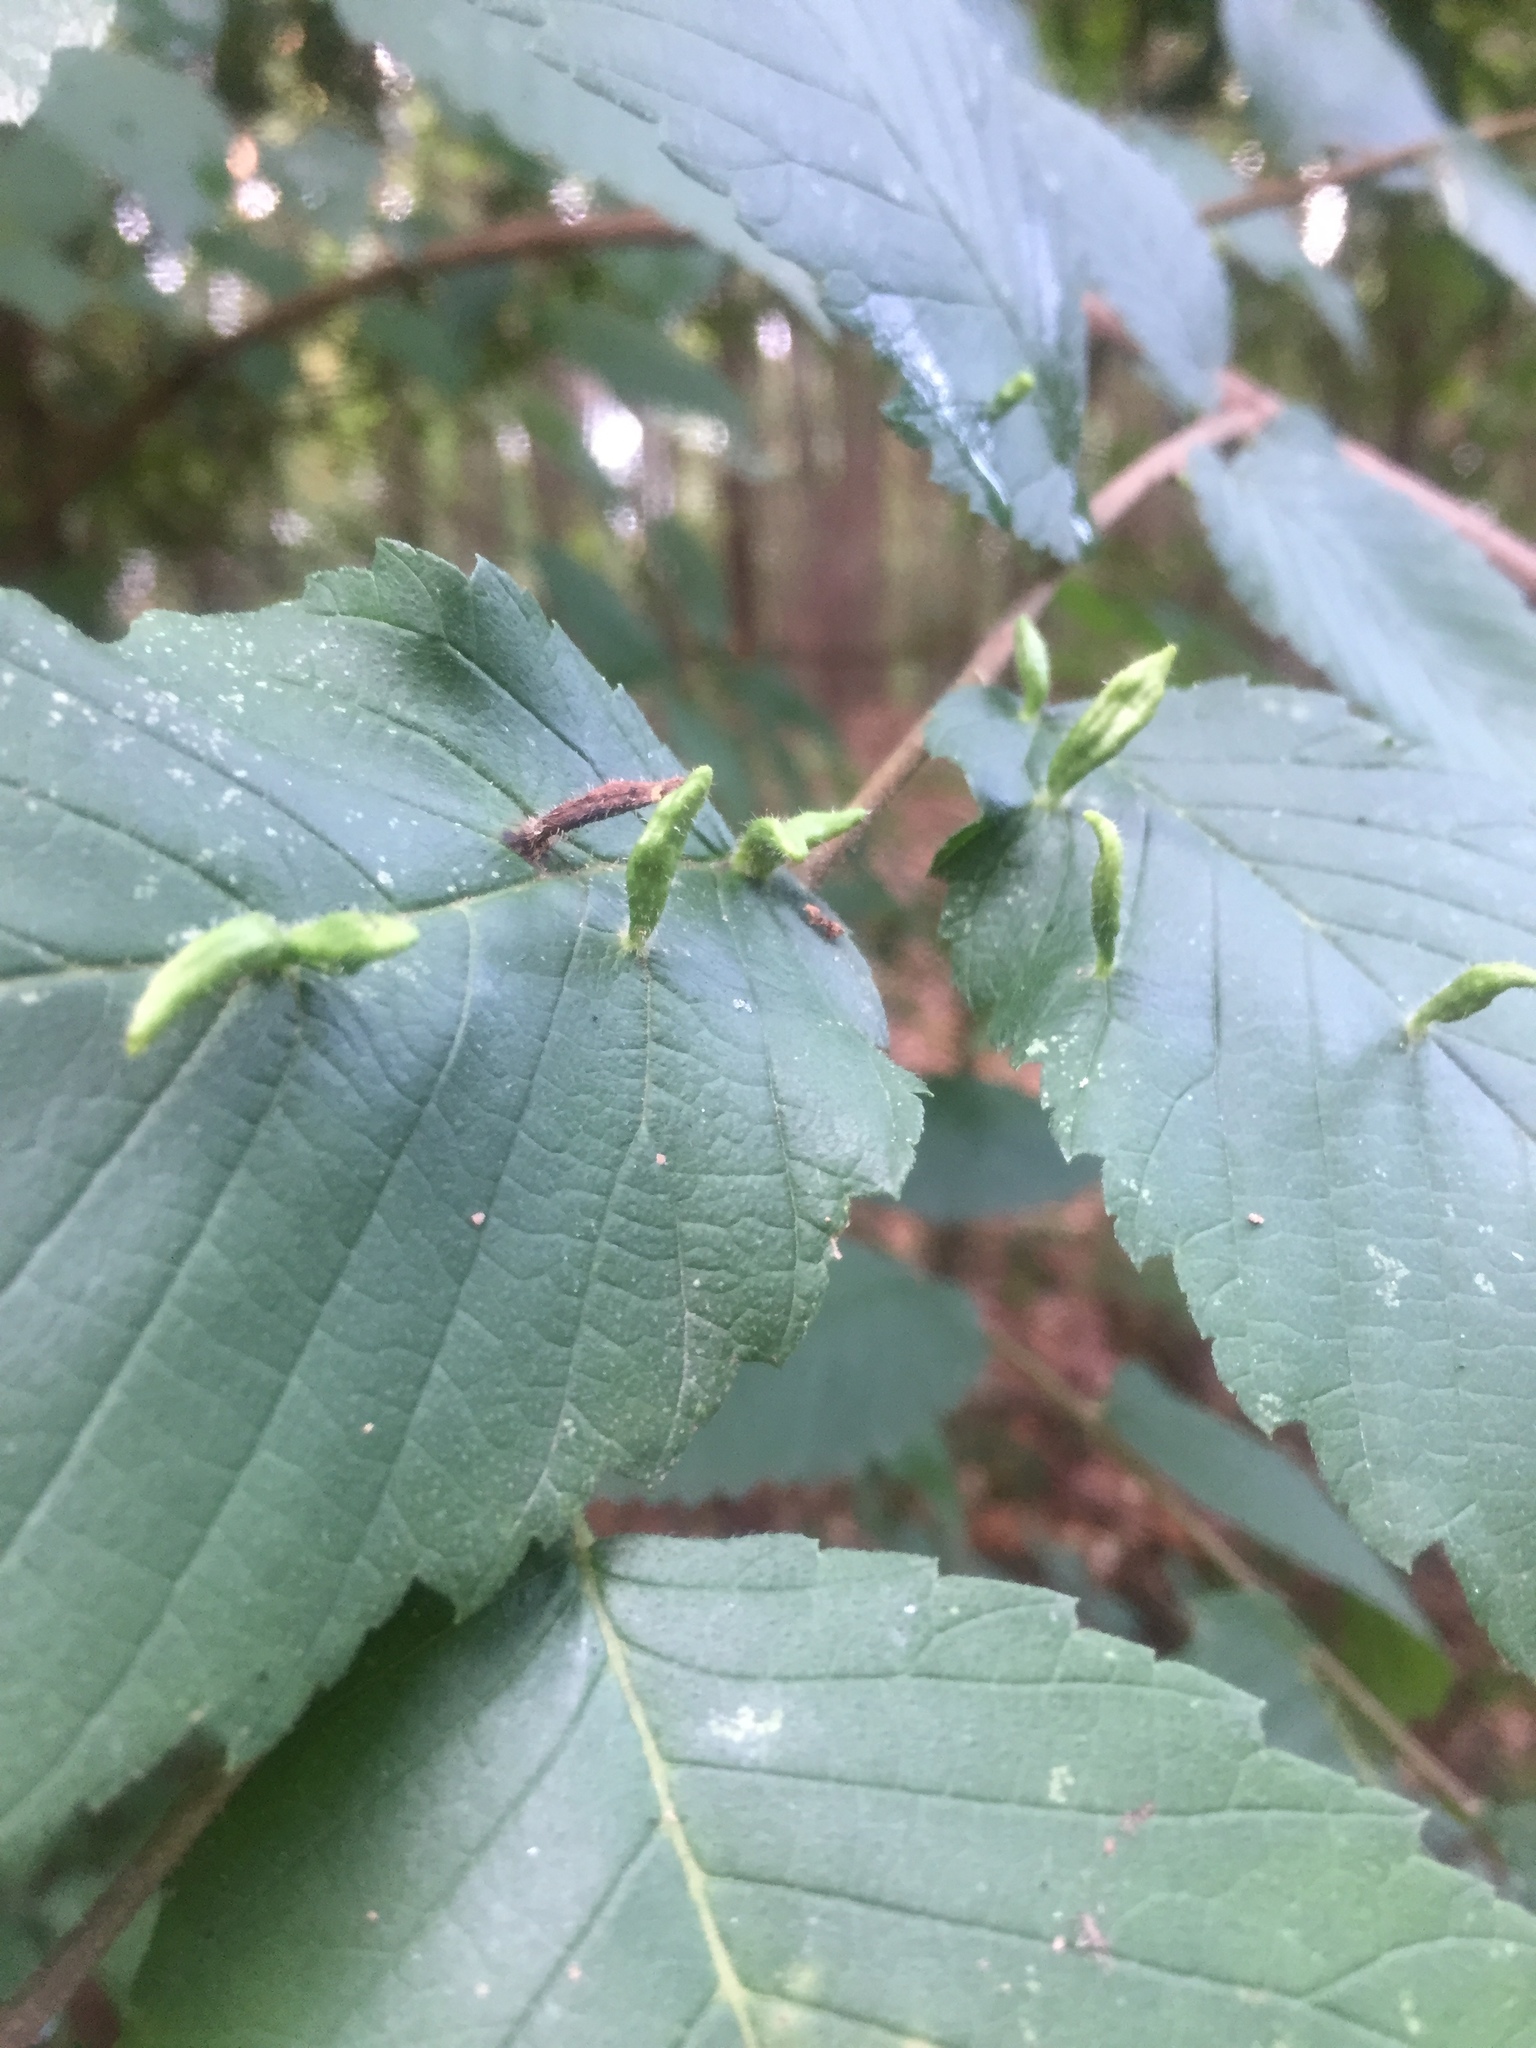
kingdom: Animalia
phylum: Arthropoda
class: Arachnida
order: Trombidiformes
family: Eriophyidae
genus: Aceria
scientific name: Aceria
